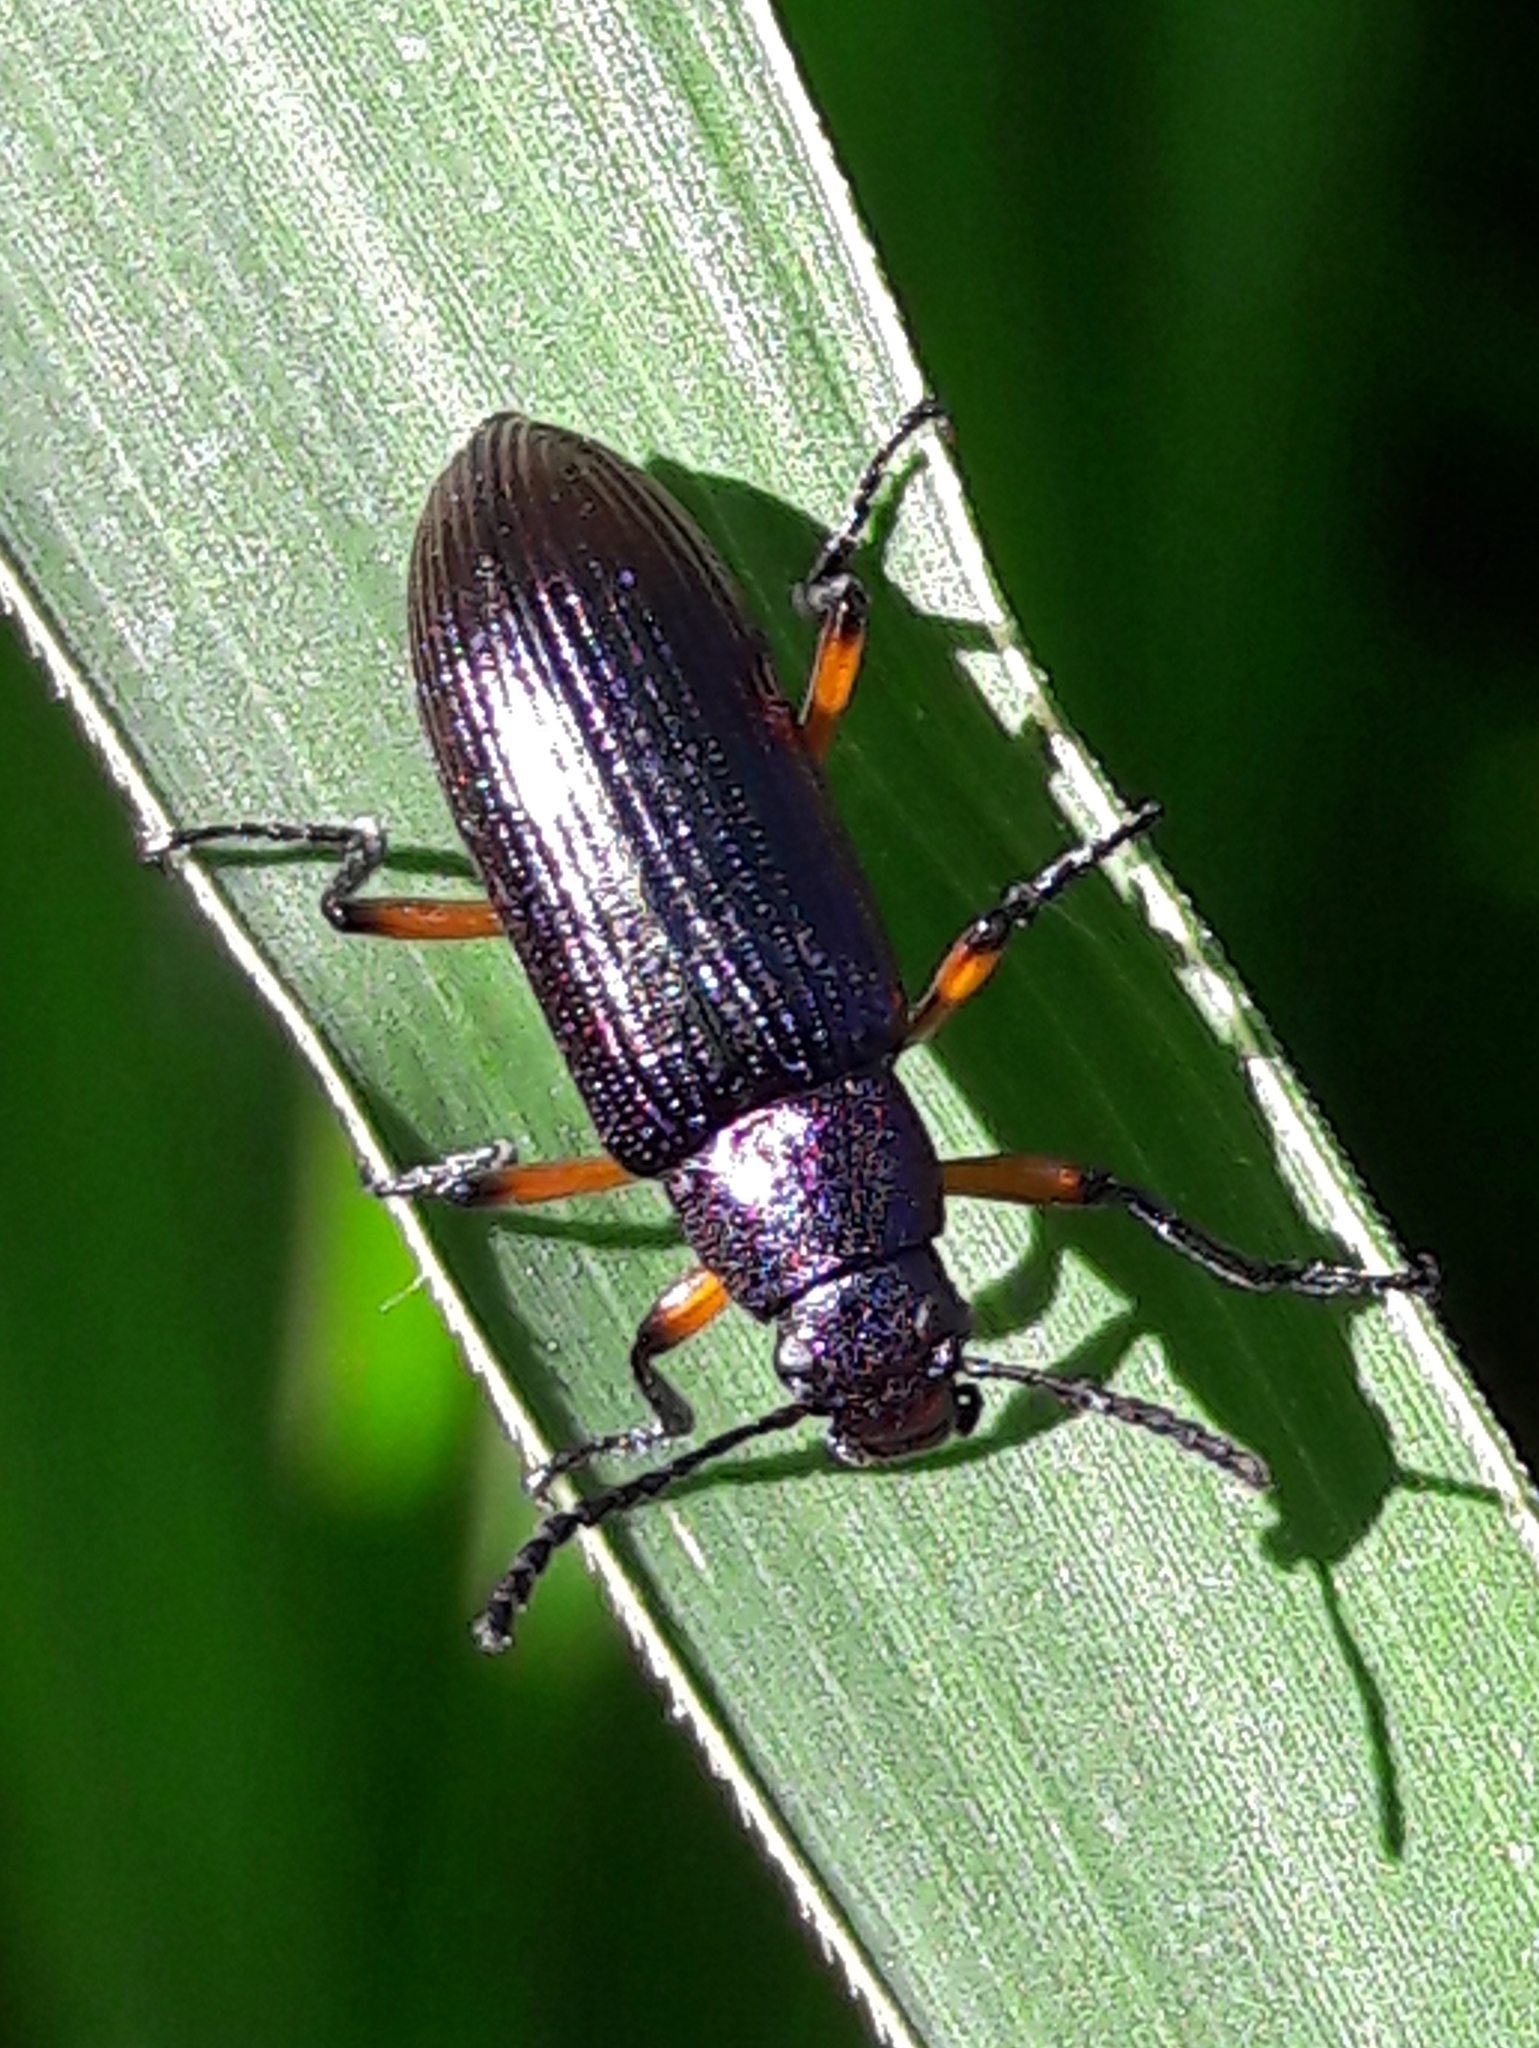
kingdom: Animalia
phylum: Arthropoda
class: Insecta
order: Coleoptera
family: Tenebrionidae
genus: Strongylium
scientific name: Strongylium
